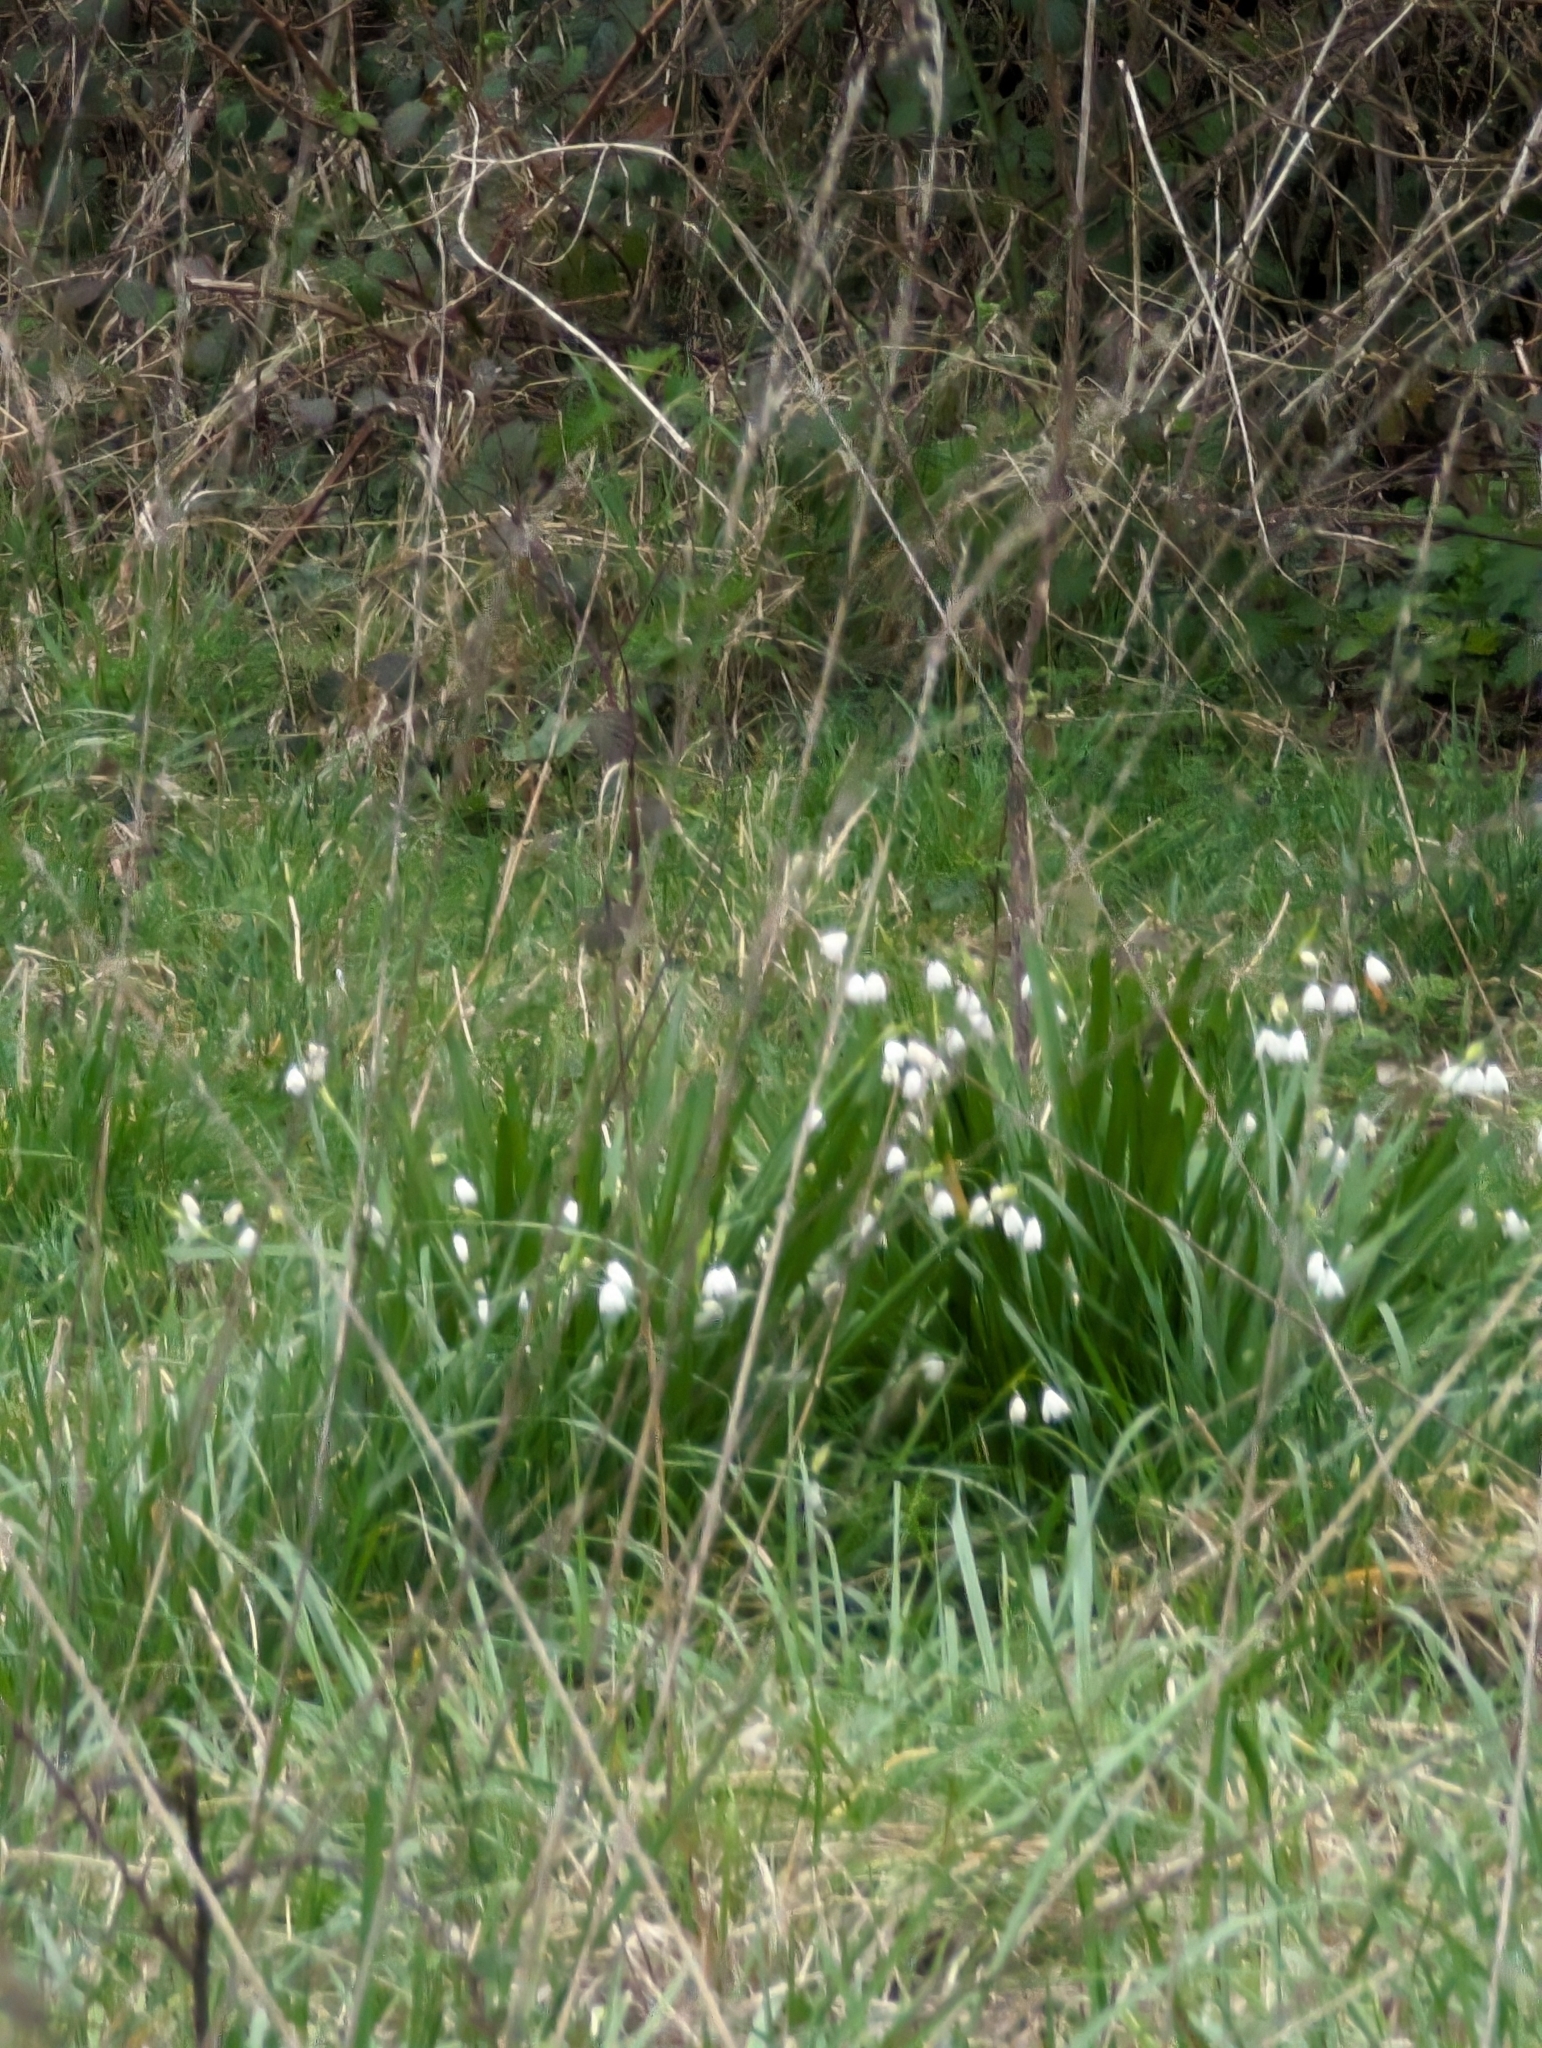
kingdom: Plantae
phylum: Tracheophyta
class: Liliopsida
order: Asparagales
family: Amaryllidaceae
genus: Leucojum
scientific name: Leucojum aestivum
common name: Summer snowflake
